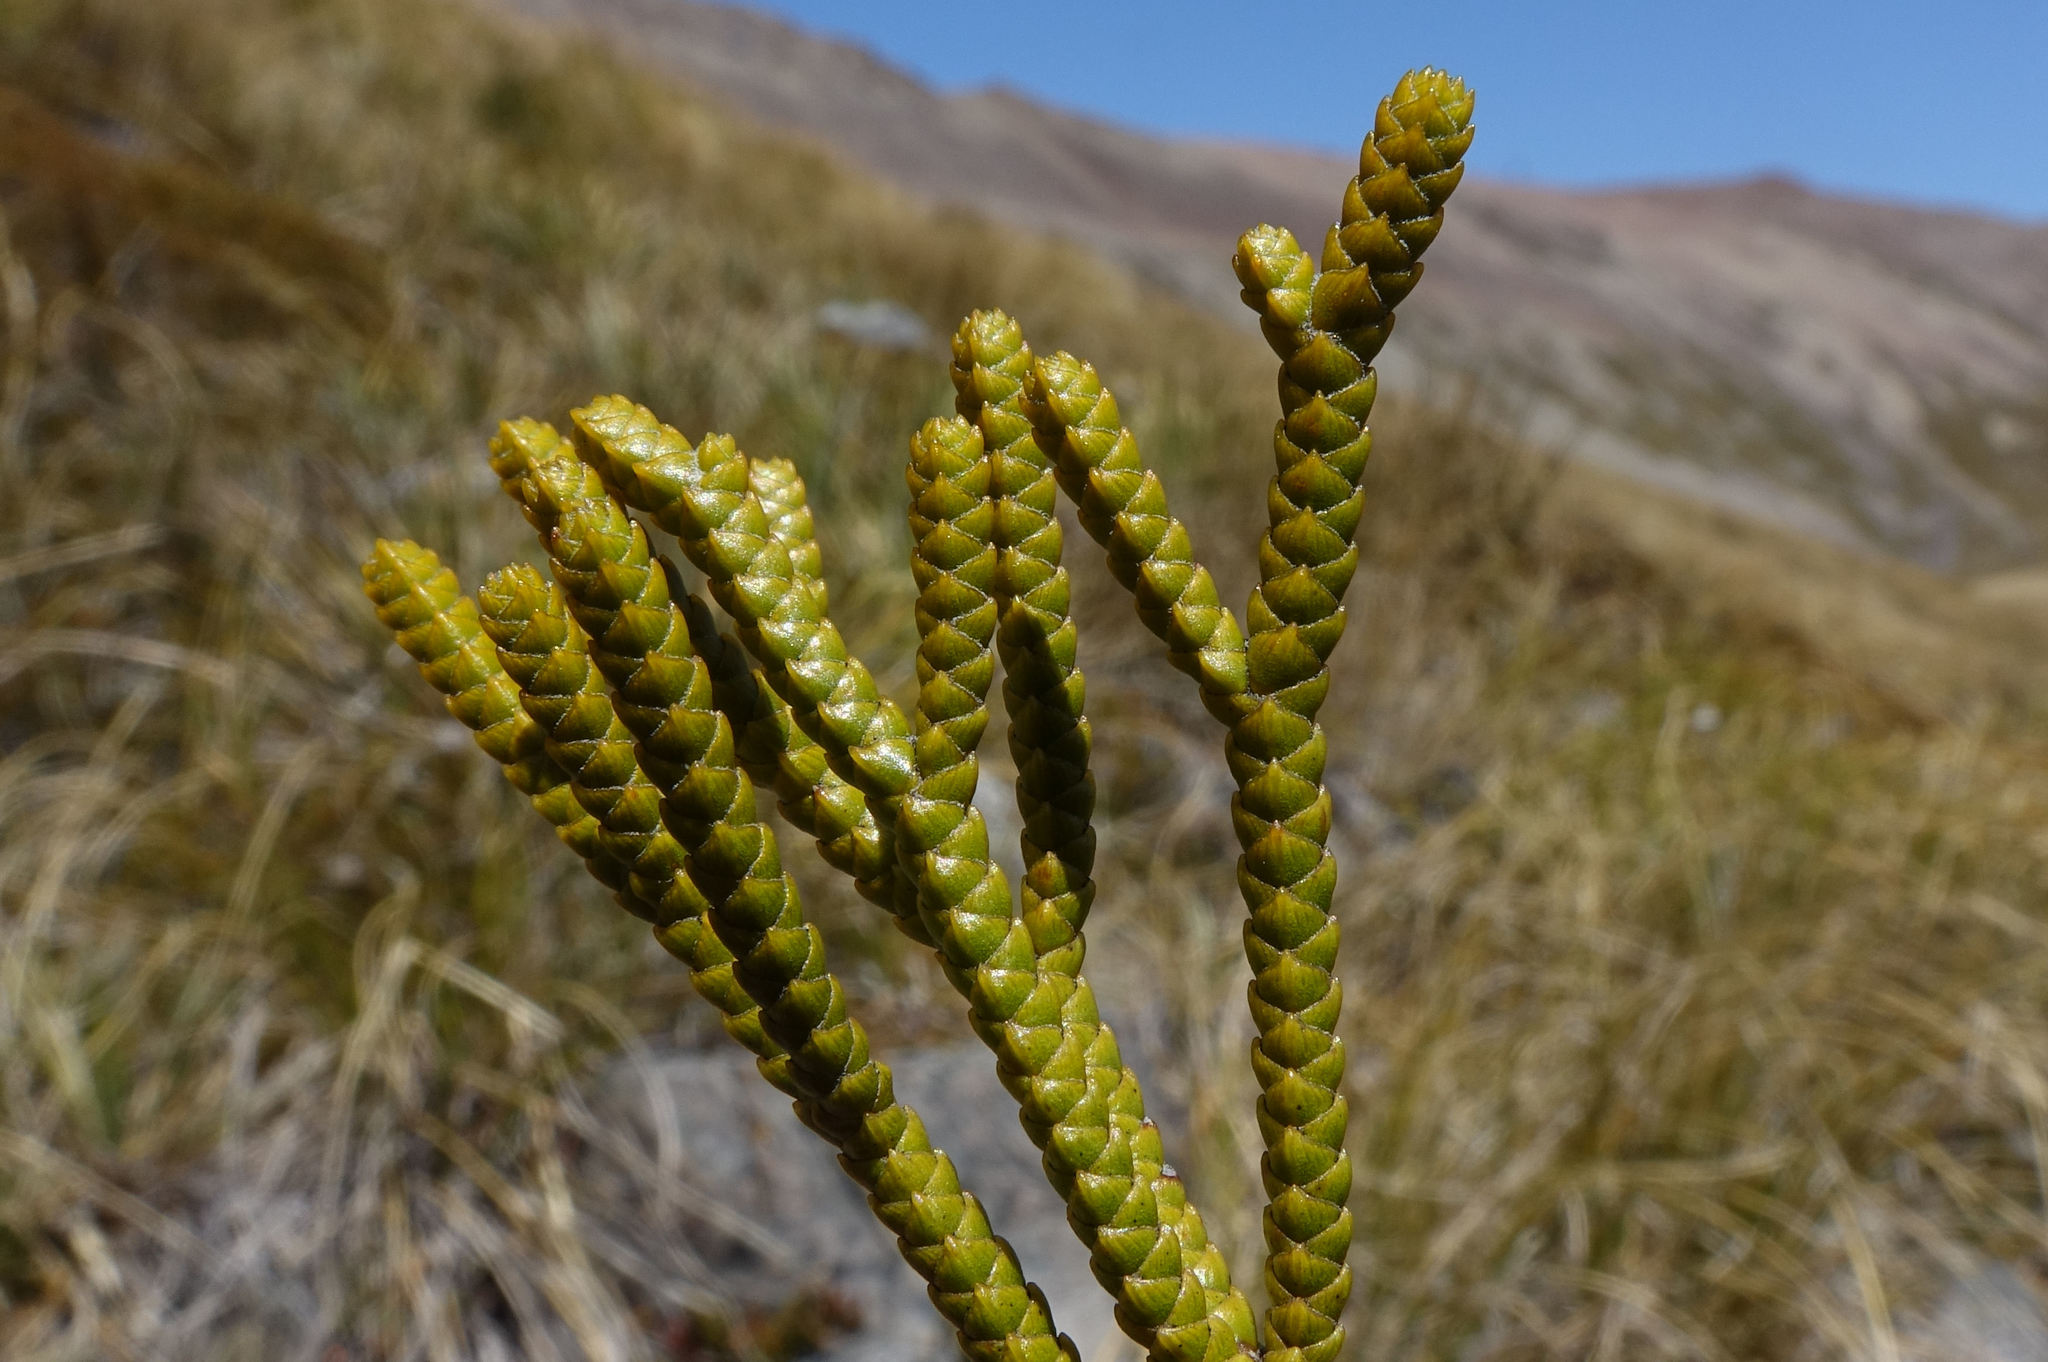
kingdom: Plantae
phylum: Tracheophyta
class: Magnoliopsida
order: Lamiales
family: Plantaginaceae
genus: Veronica
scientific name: Veronica lycopodioides
